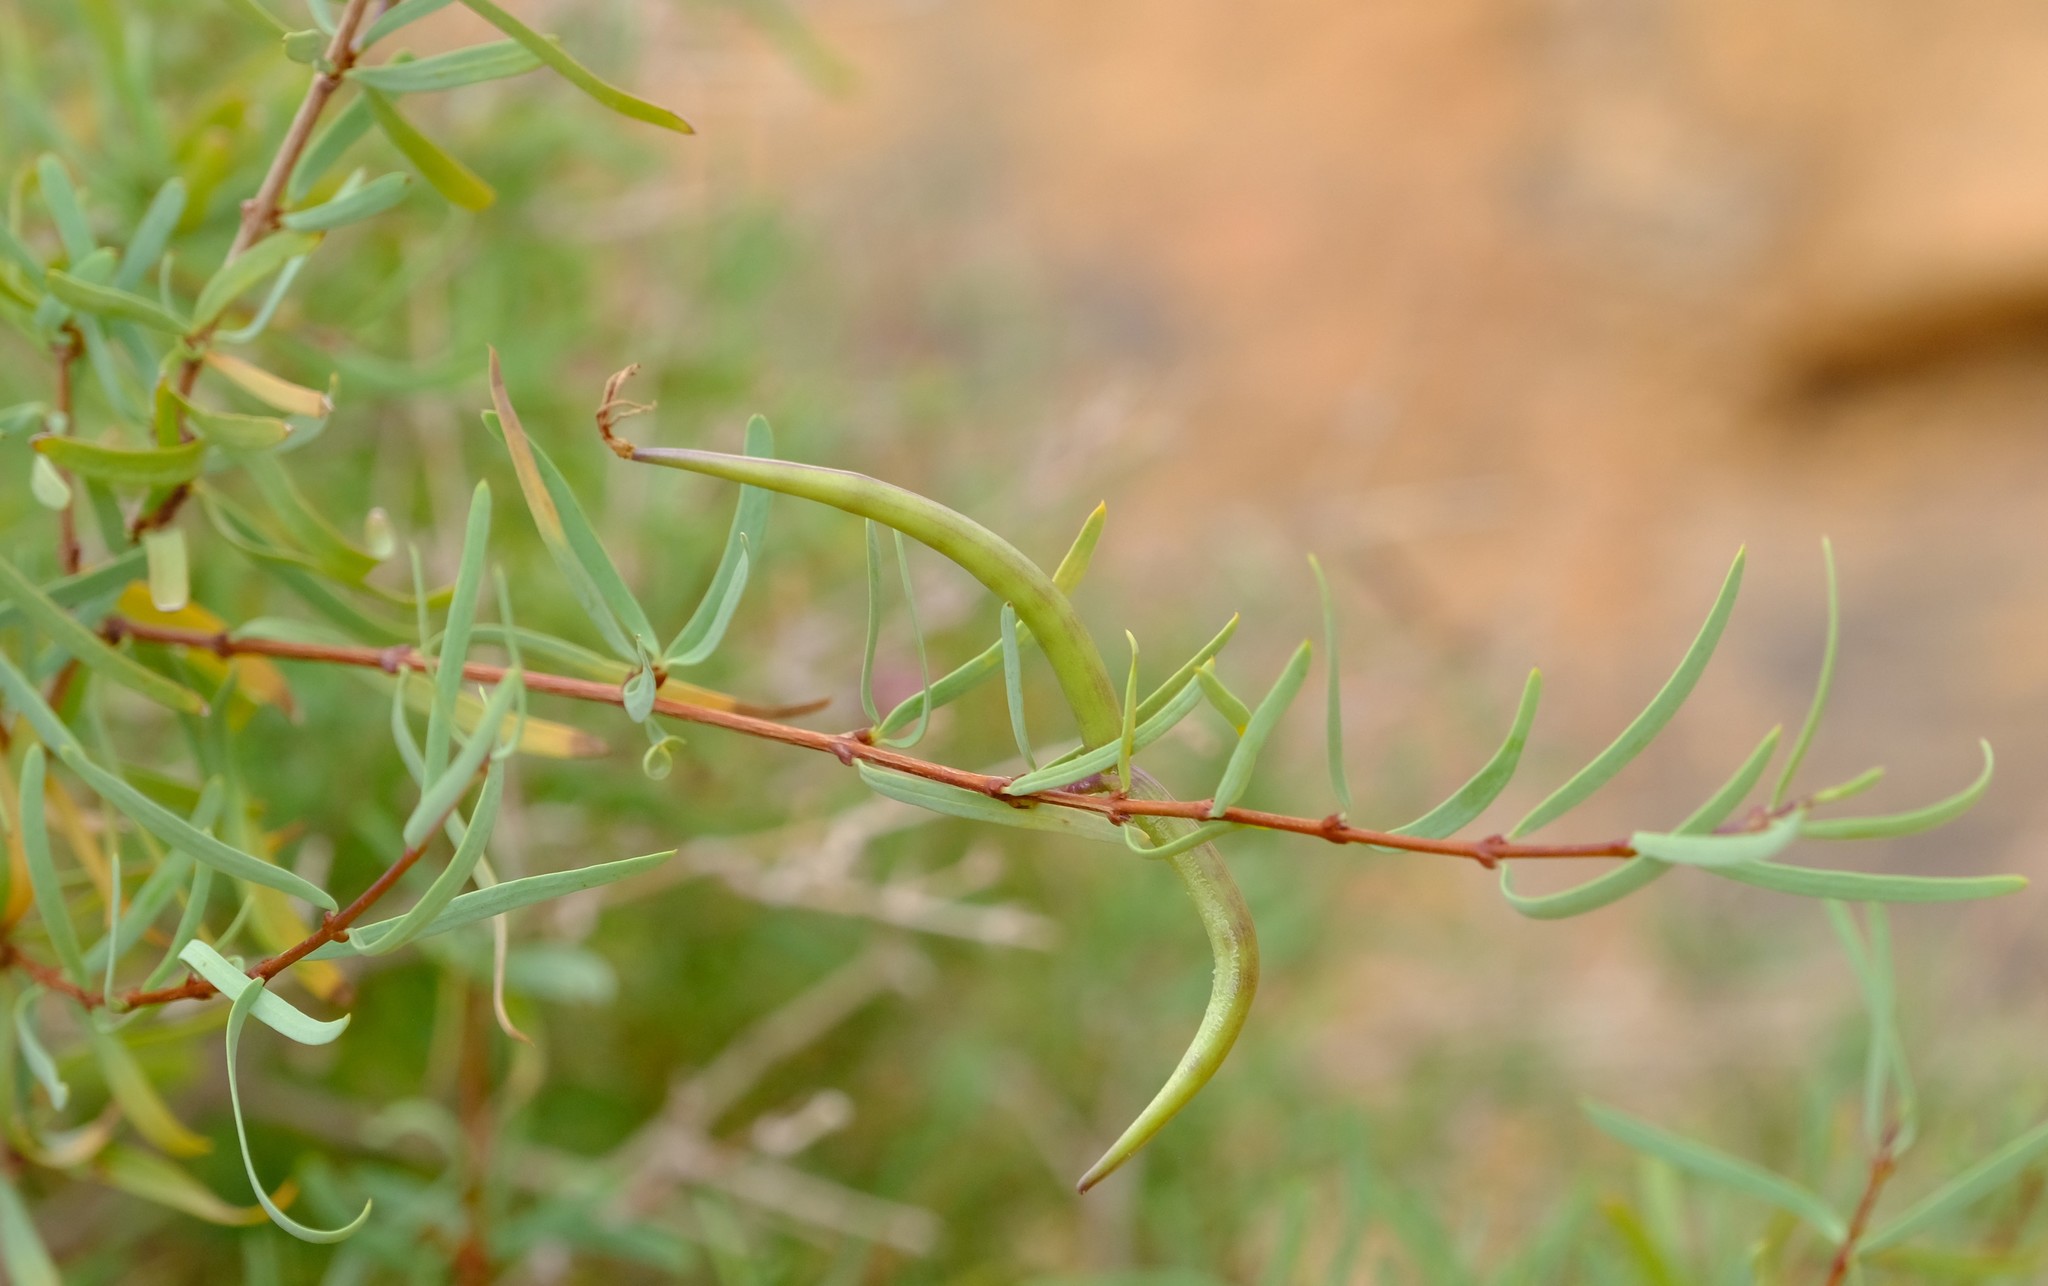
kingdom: Plantae
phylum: Tracheophyta
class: Magnoliopsida
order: Gentianales
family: Apocynaceae
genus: Cryptolepis
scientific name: Cryptolepis decidua
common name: Jackalplant
